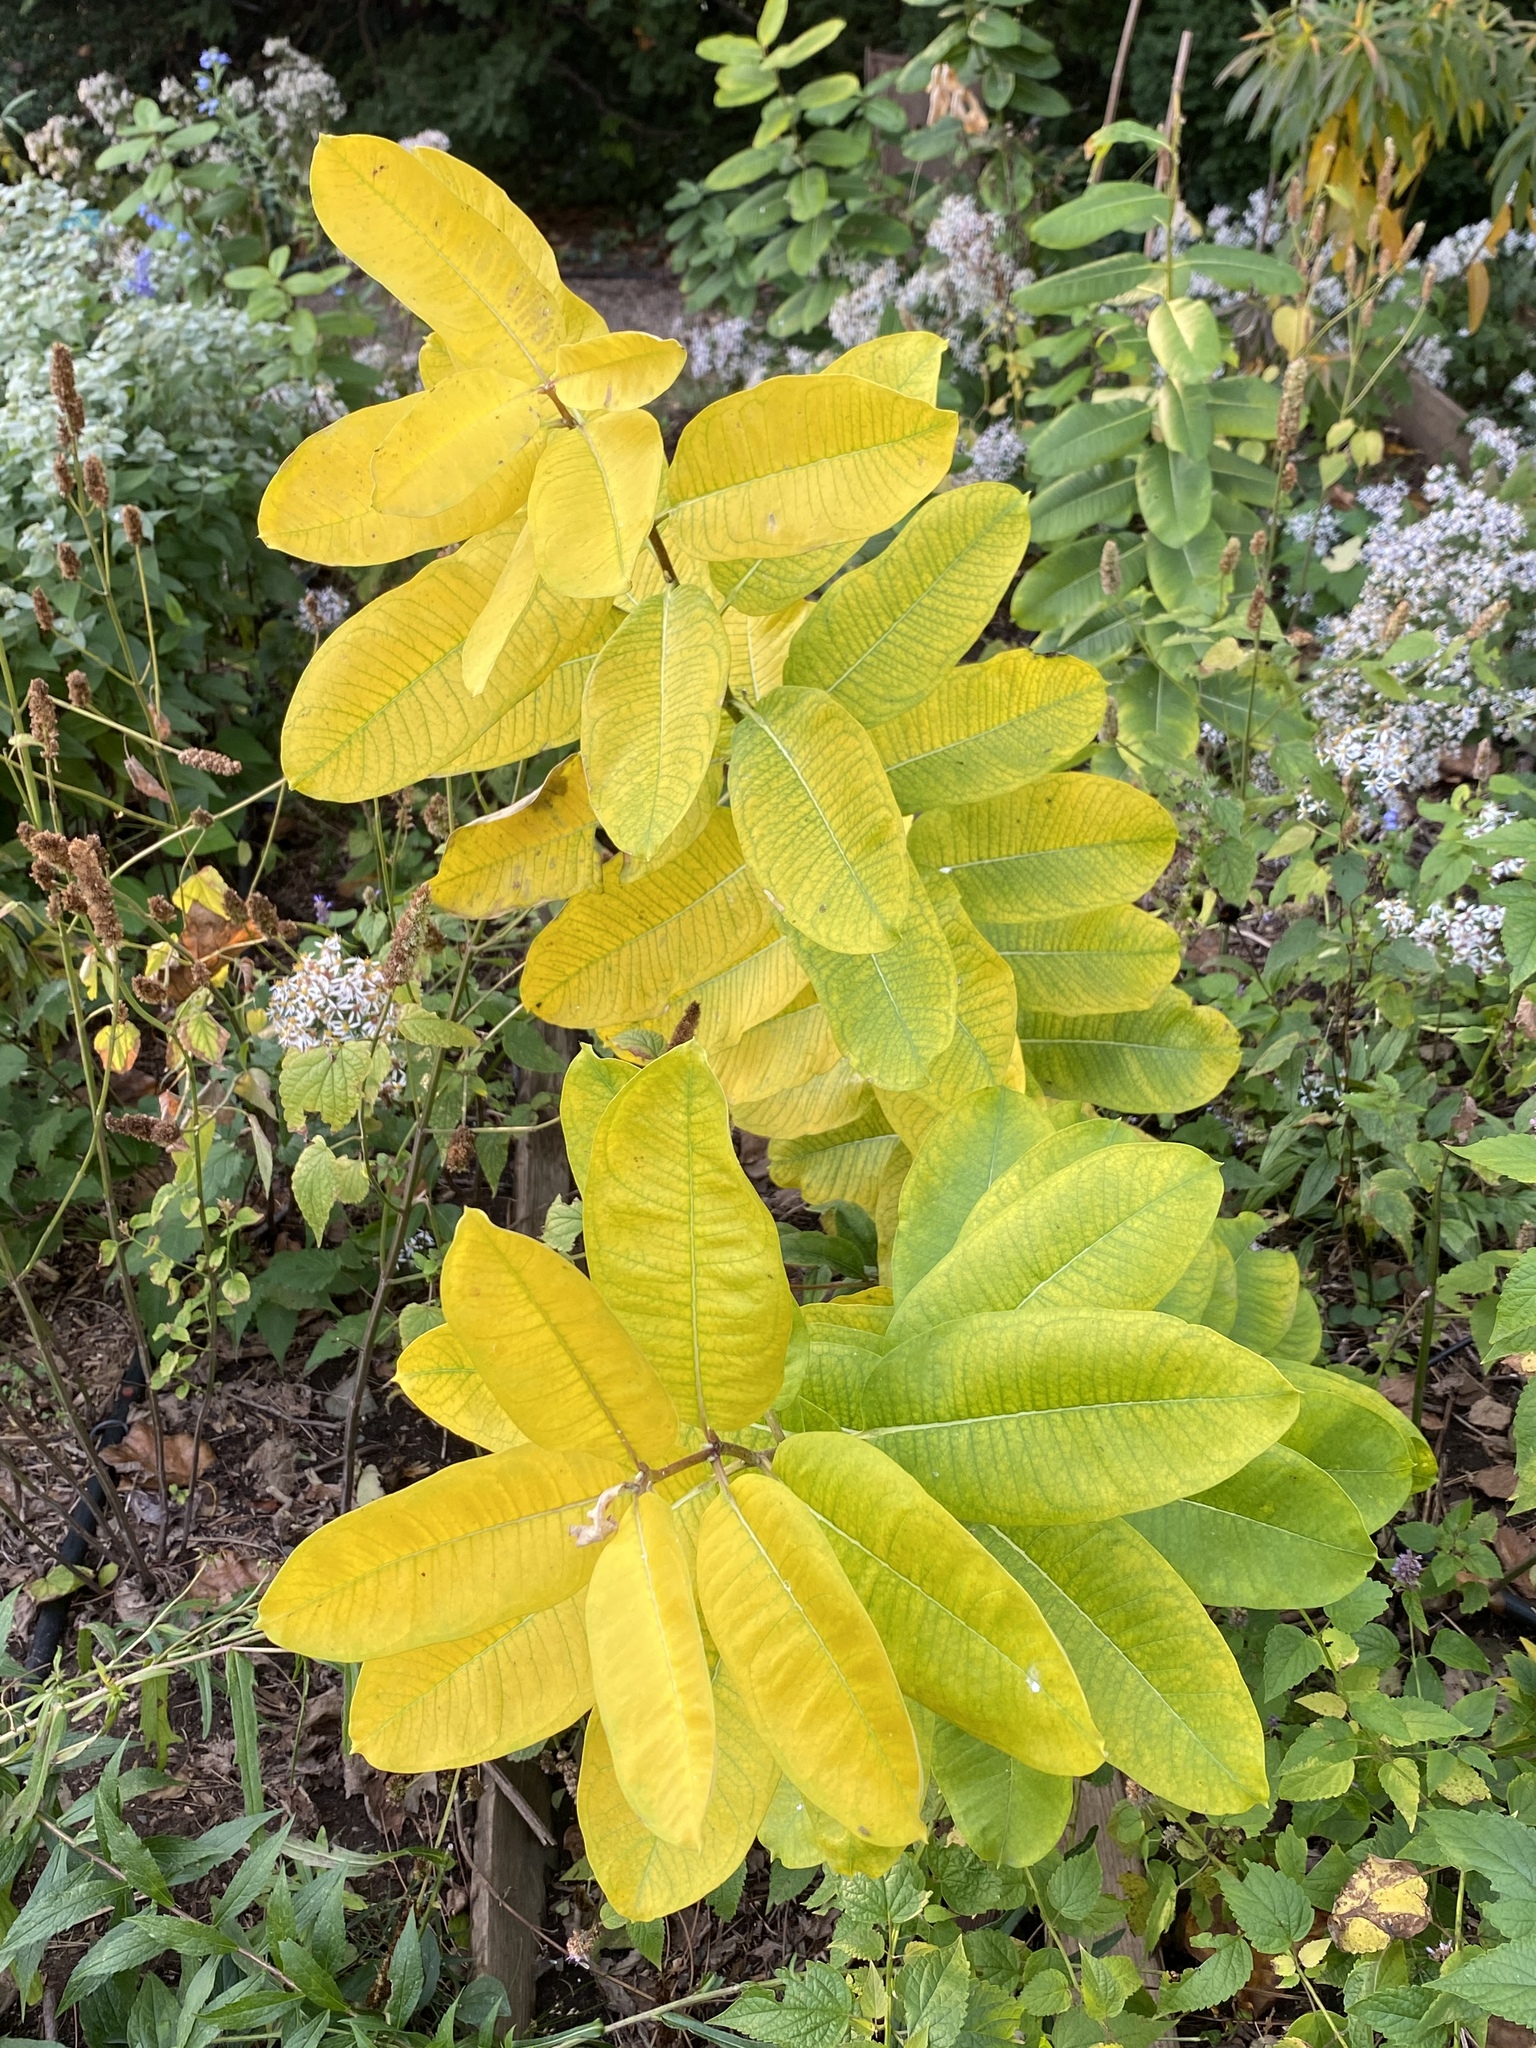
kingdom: Plantae
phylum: Tracheophyta
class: Magnoliopsida
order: Gentianales
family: Apocynaceae
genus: Asclepias
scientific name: Asclepias syriaca
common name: Common milkweed
